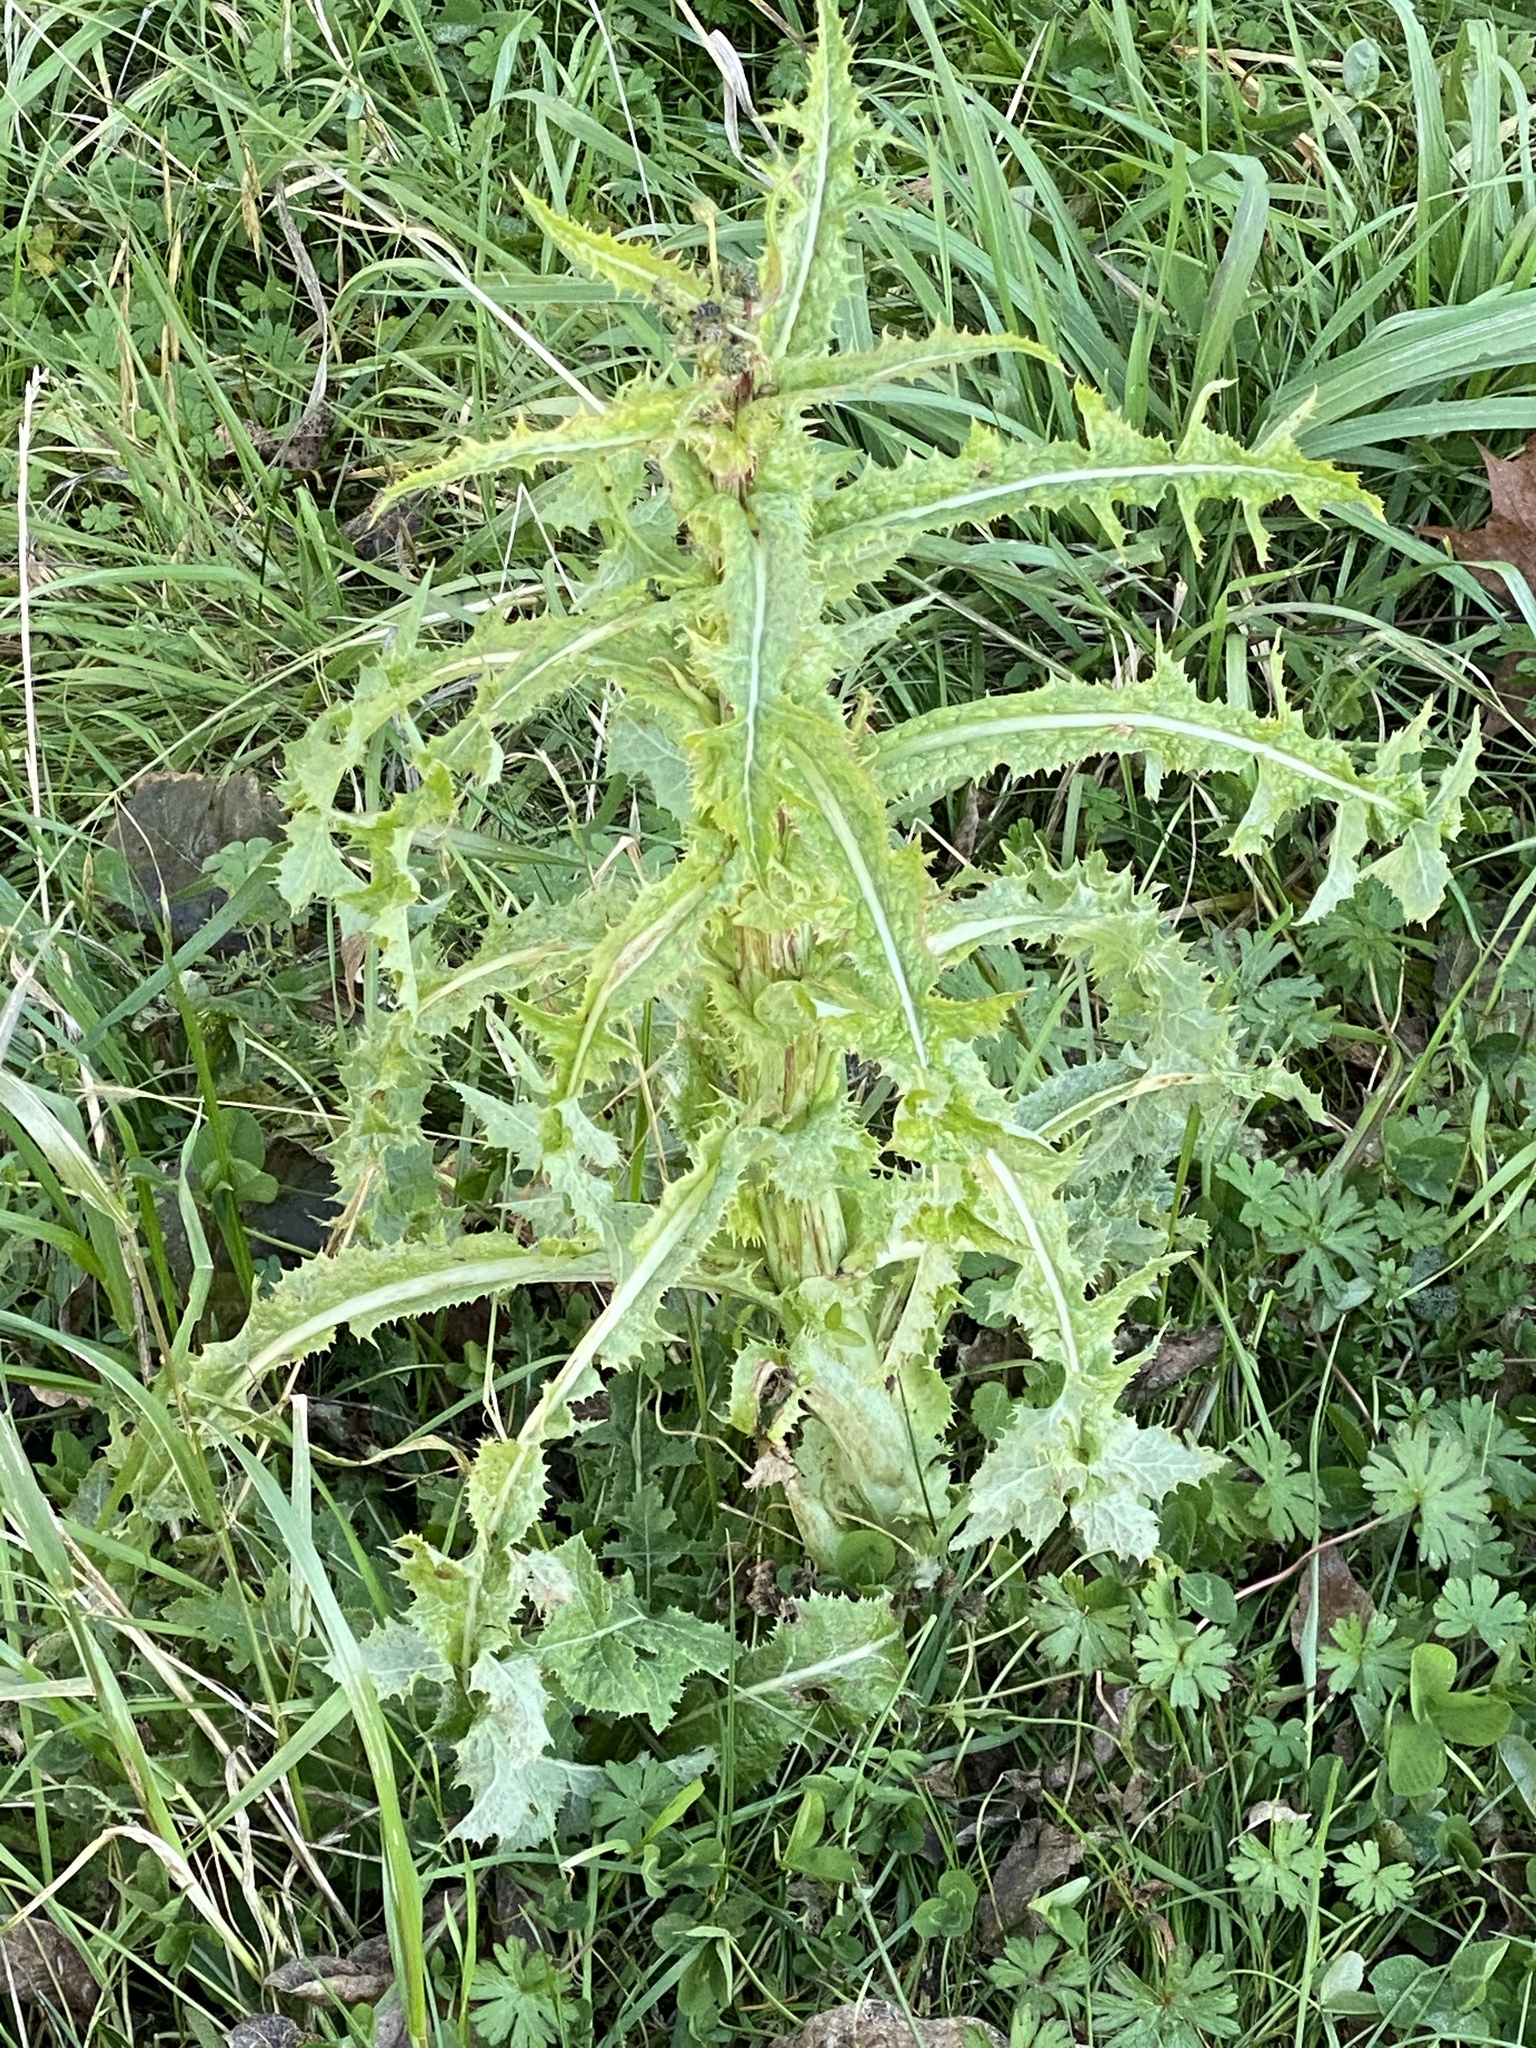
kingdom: Plantae
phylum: Tracheophyta
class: Magnoliopsida
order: Asterales
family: Asteraceae
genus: Sonchus
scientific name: Sonchus asper
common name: Prickly sow-thistle
